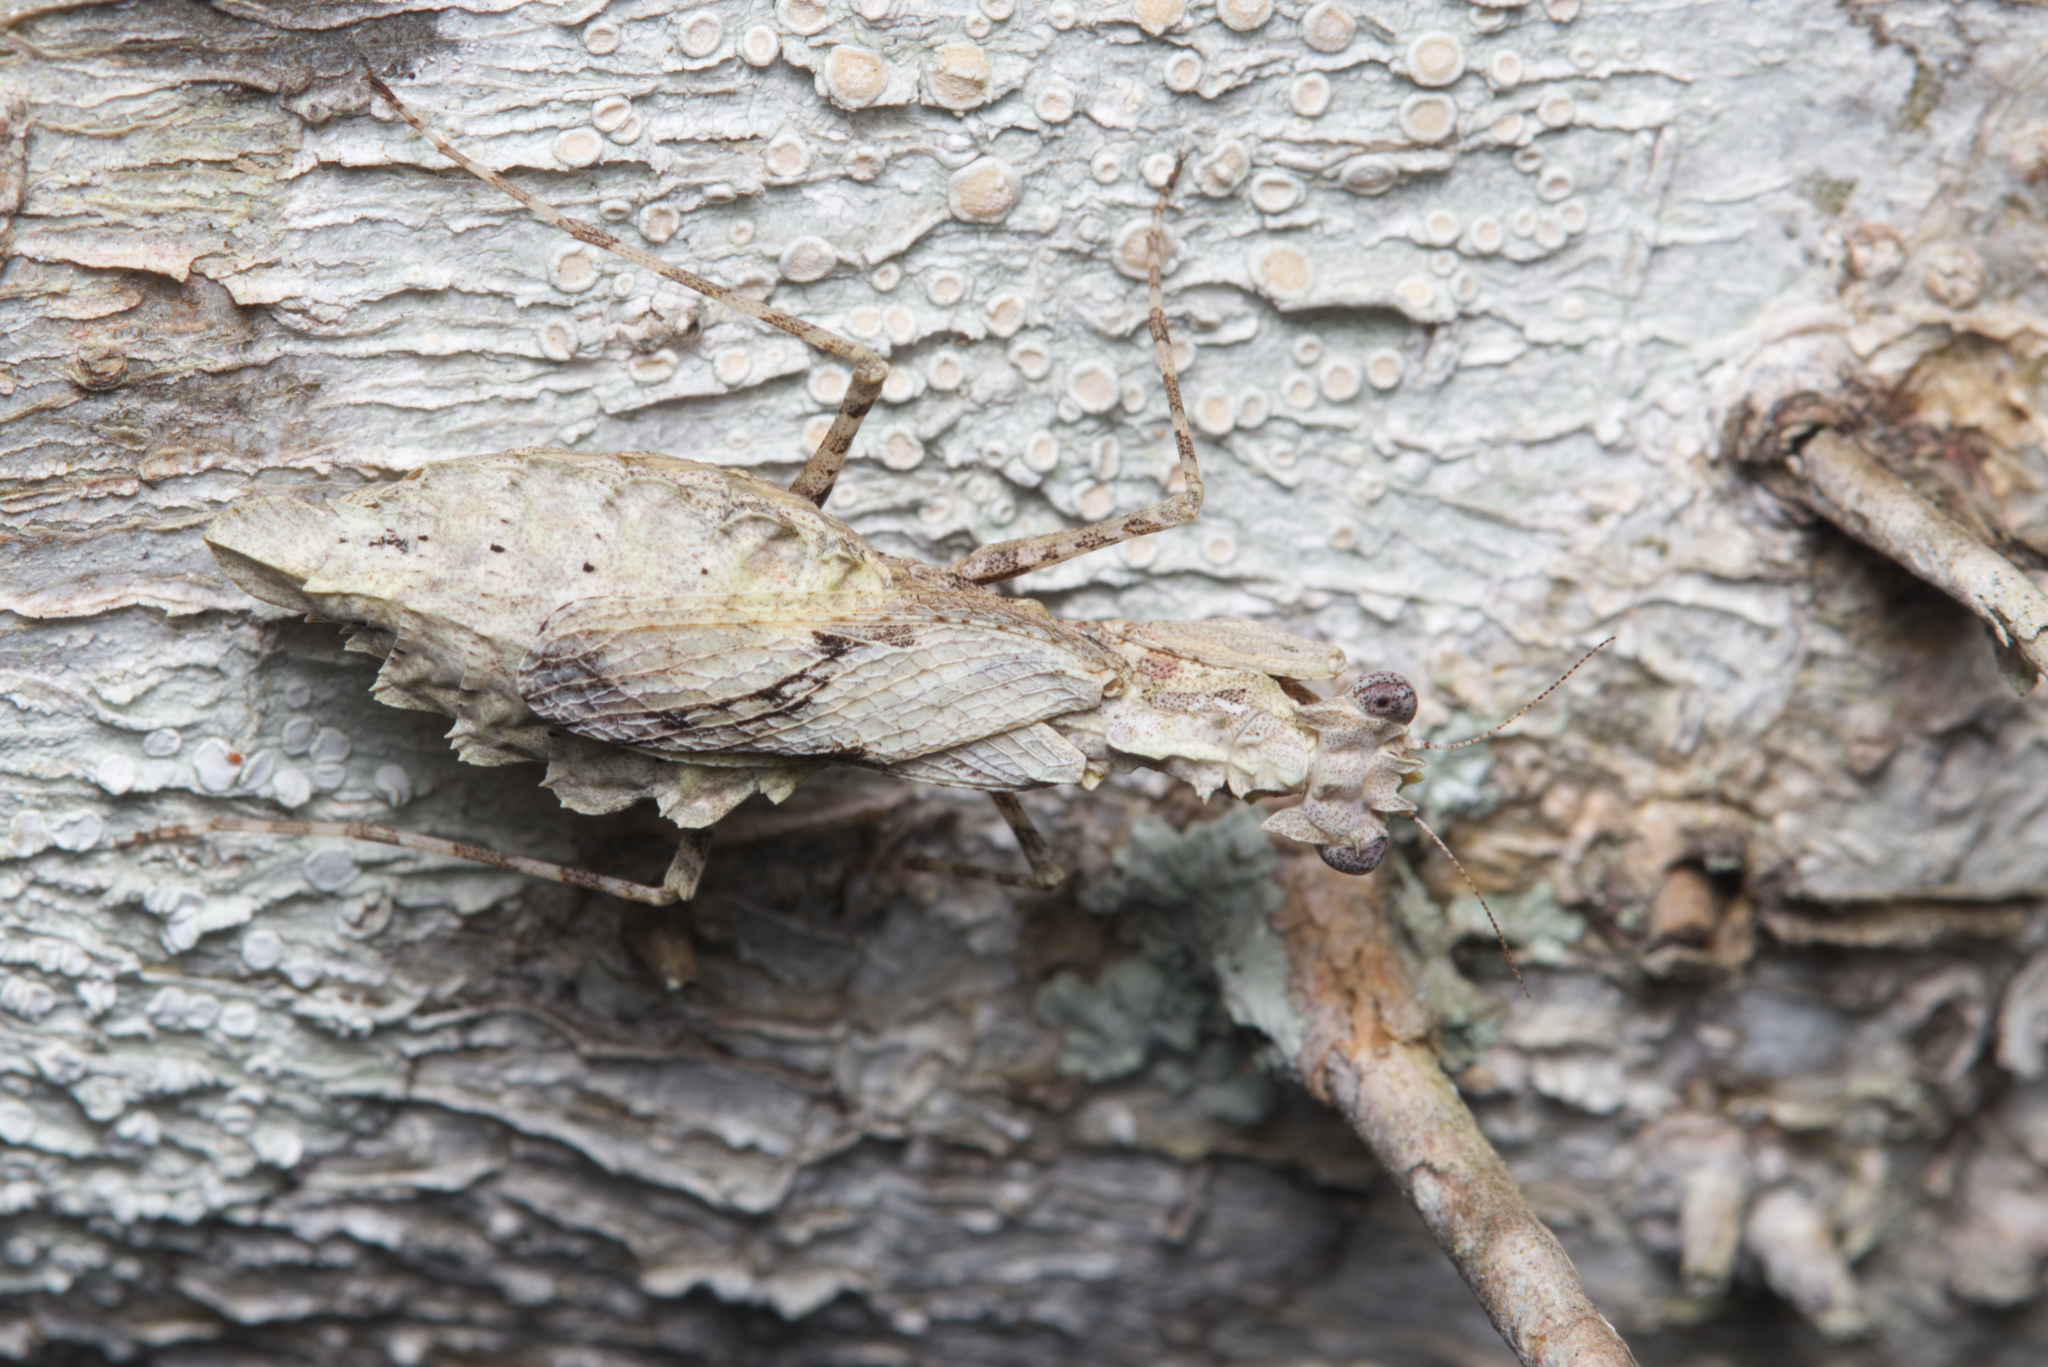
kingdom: Animalia
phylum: Arthropoda
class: Insecta
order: Mantodea
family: Nanomantidae
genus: Metoxypilus
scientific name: Metoxypilus lobifrons
